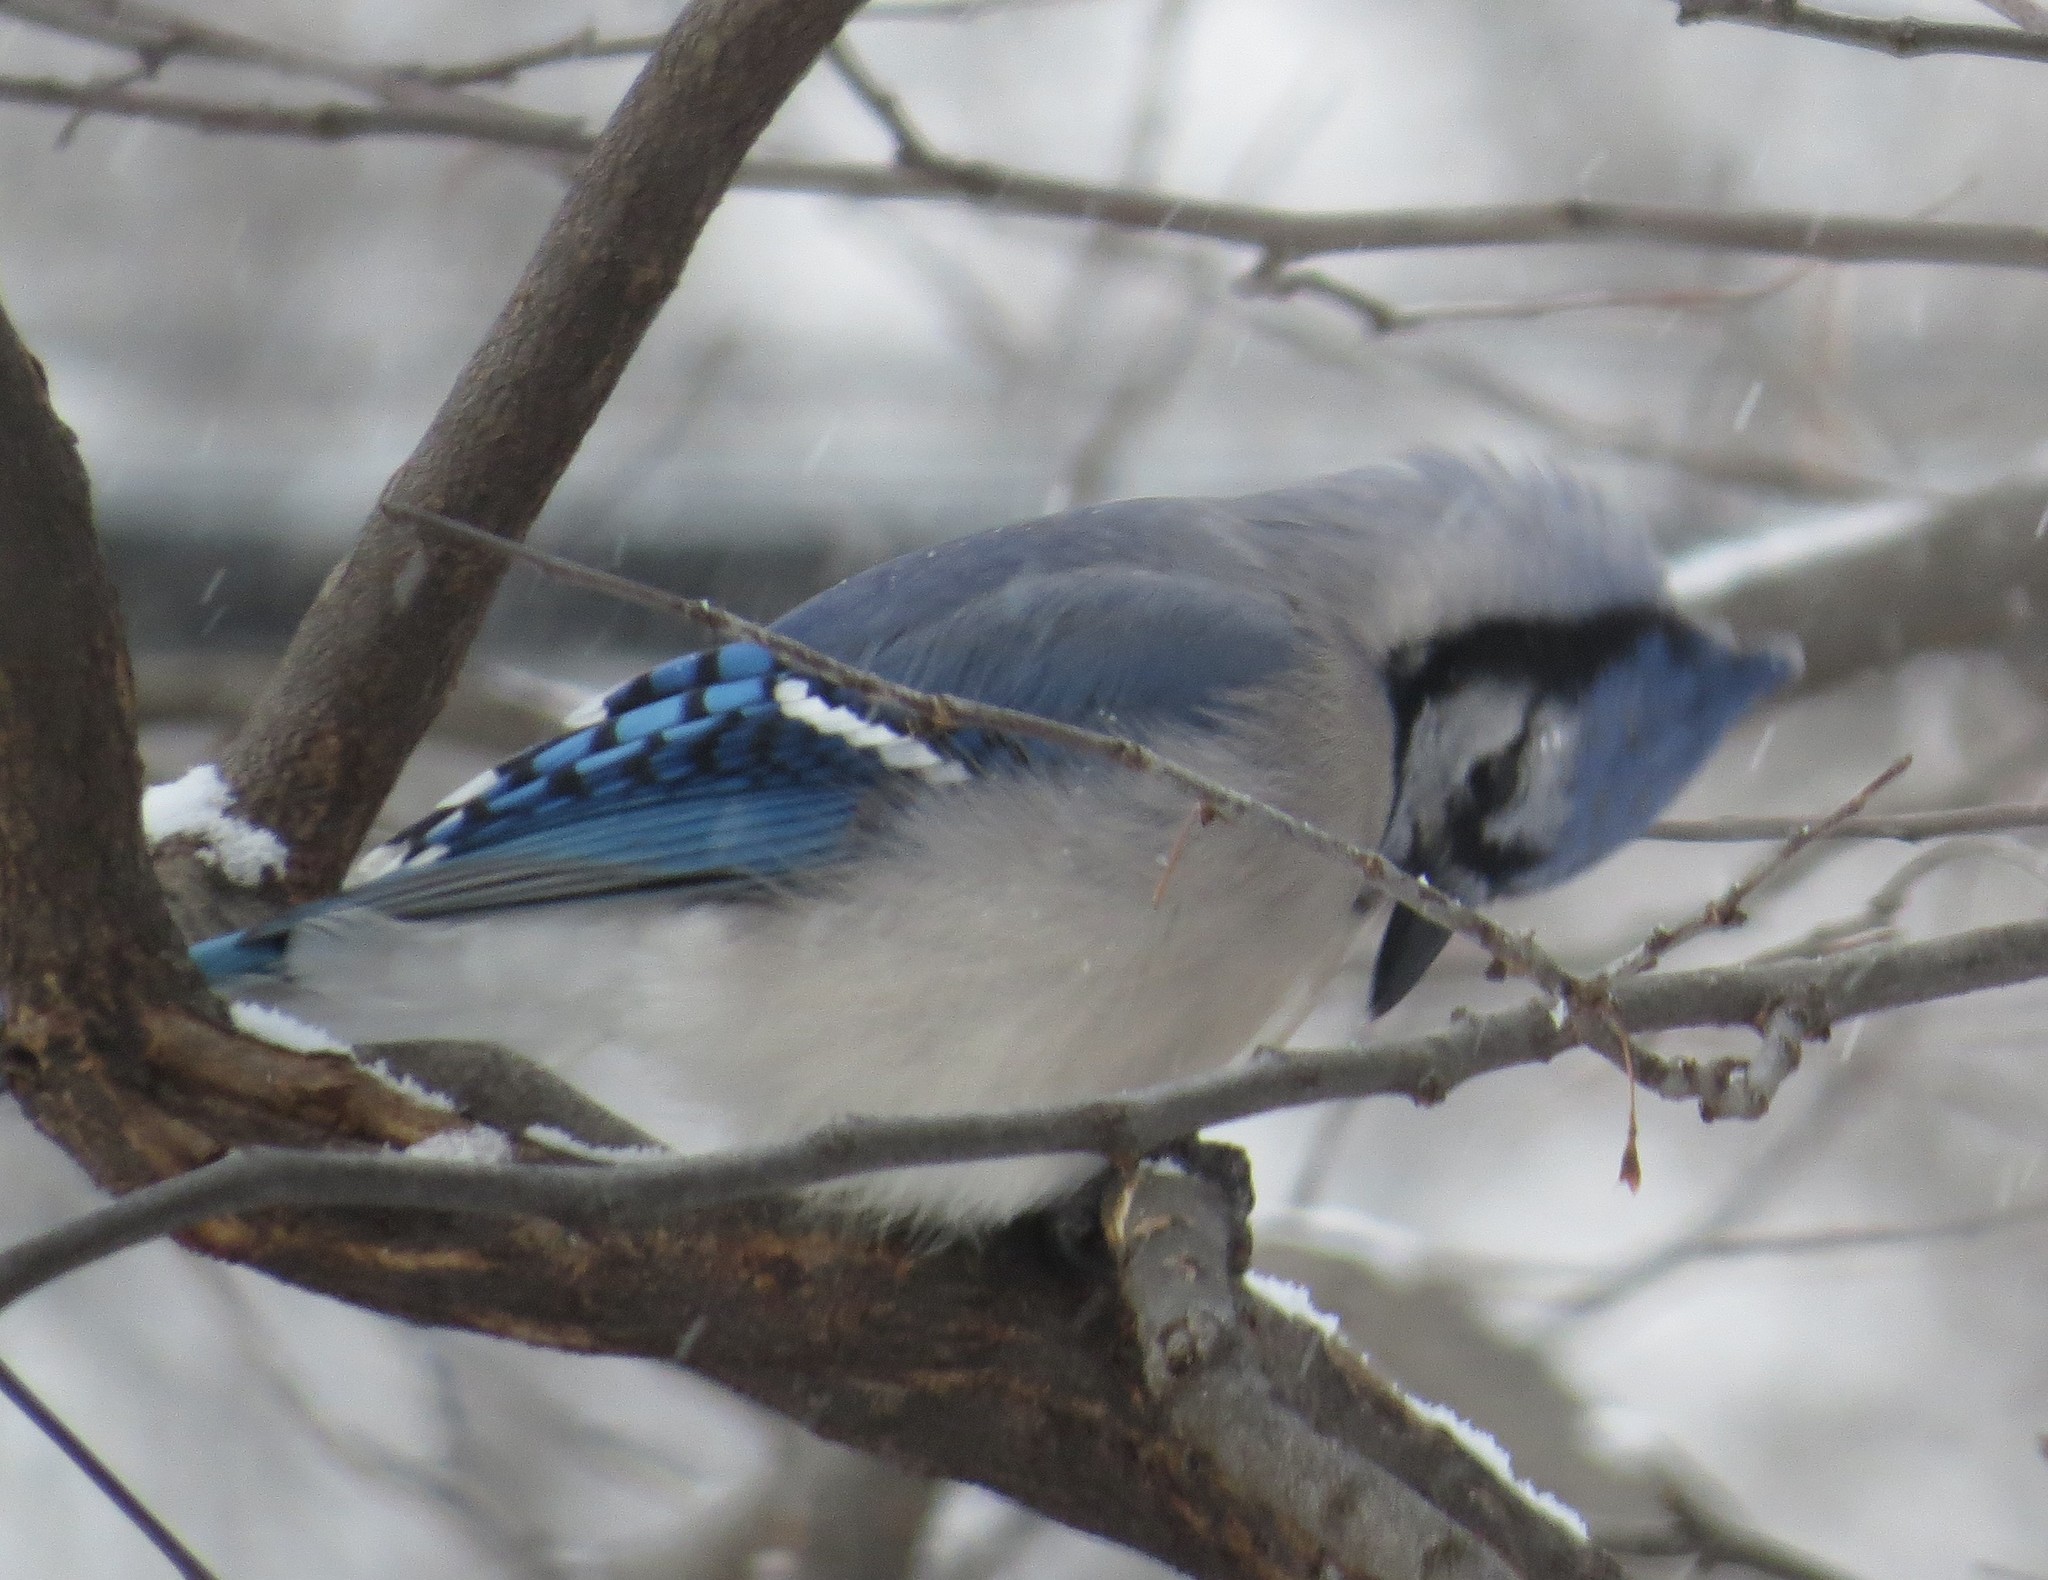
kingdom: Animalia
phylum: Chordata
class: Aves
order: Passeriformes
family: Corvidae
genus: Cyanocitta
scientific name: Cyanocitta cristata
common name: Blue jay
